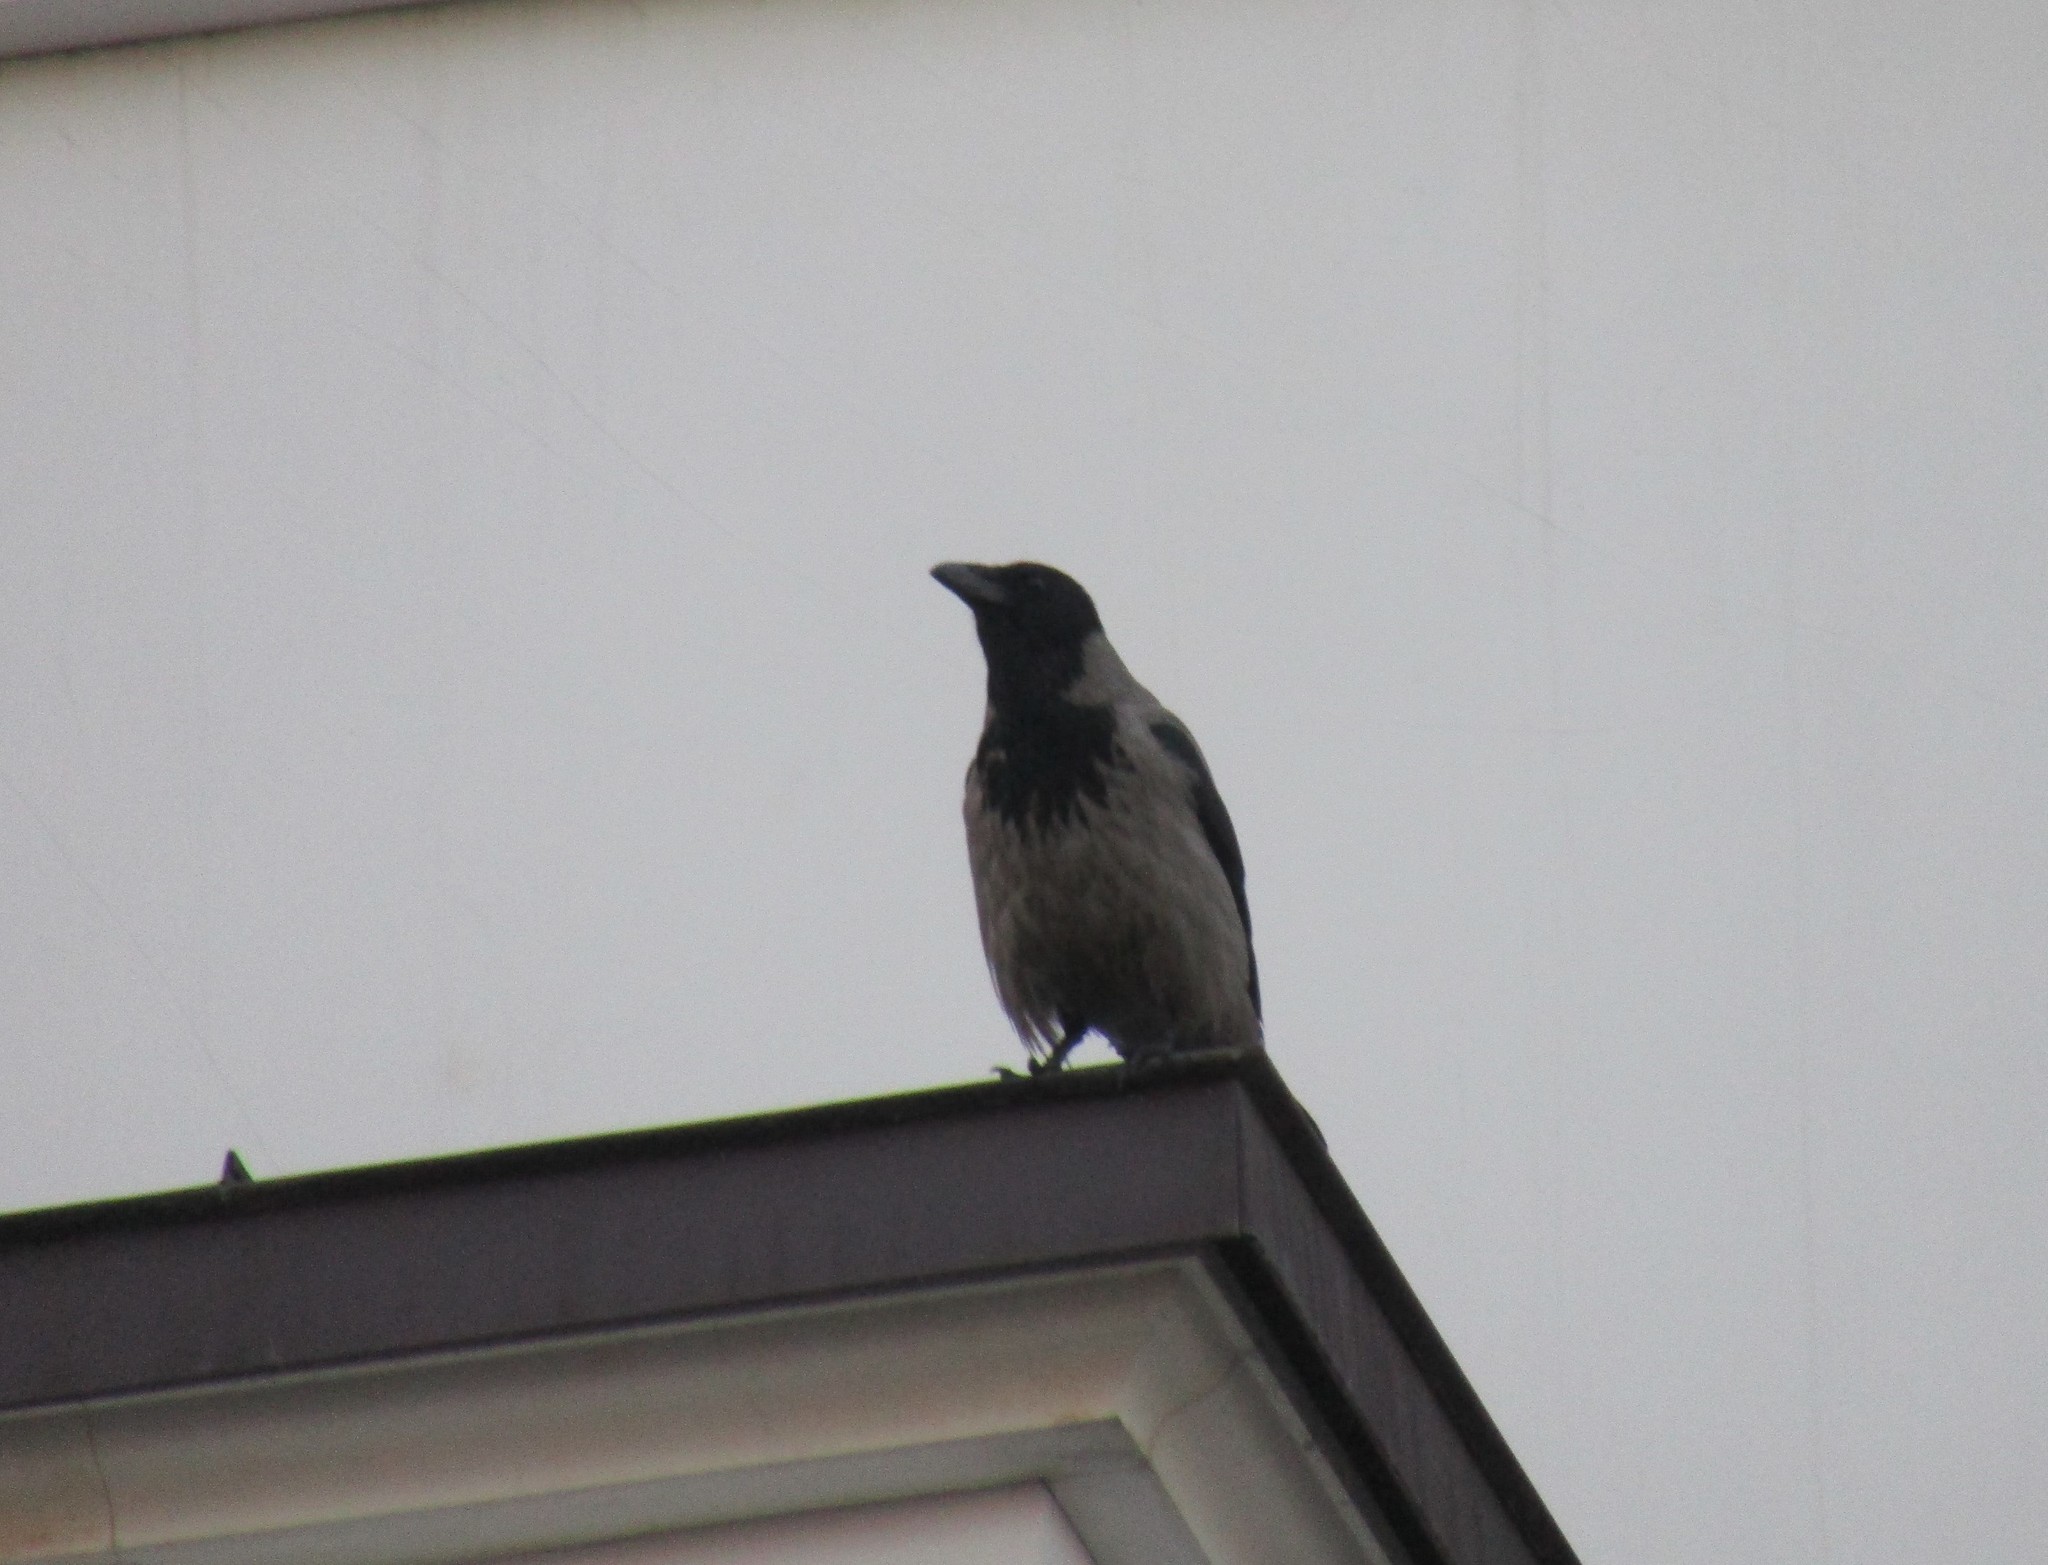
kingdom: Animalia
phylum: Chordata
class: Aves
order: Passeriformes
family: Corvidae
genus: Corvus
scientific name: Corvus cornix
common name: Hooded crow
